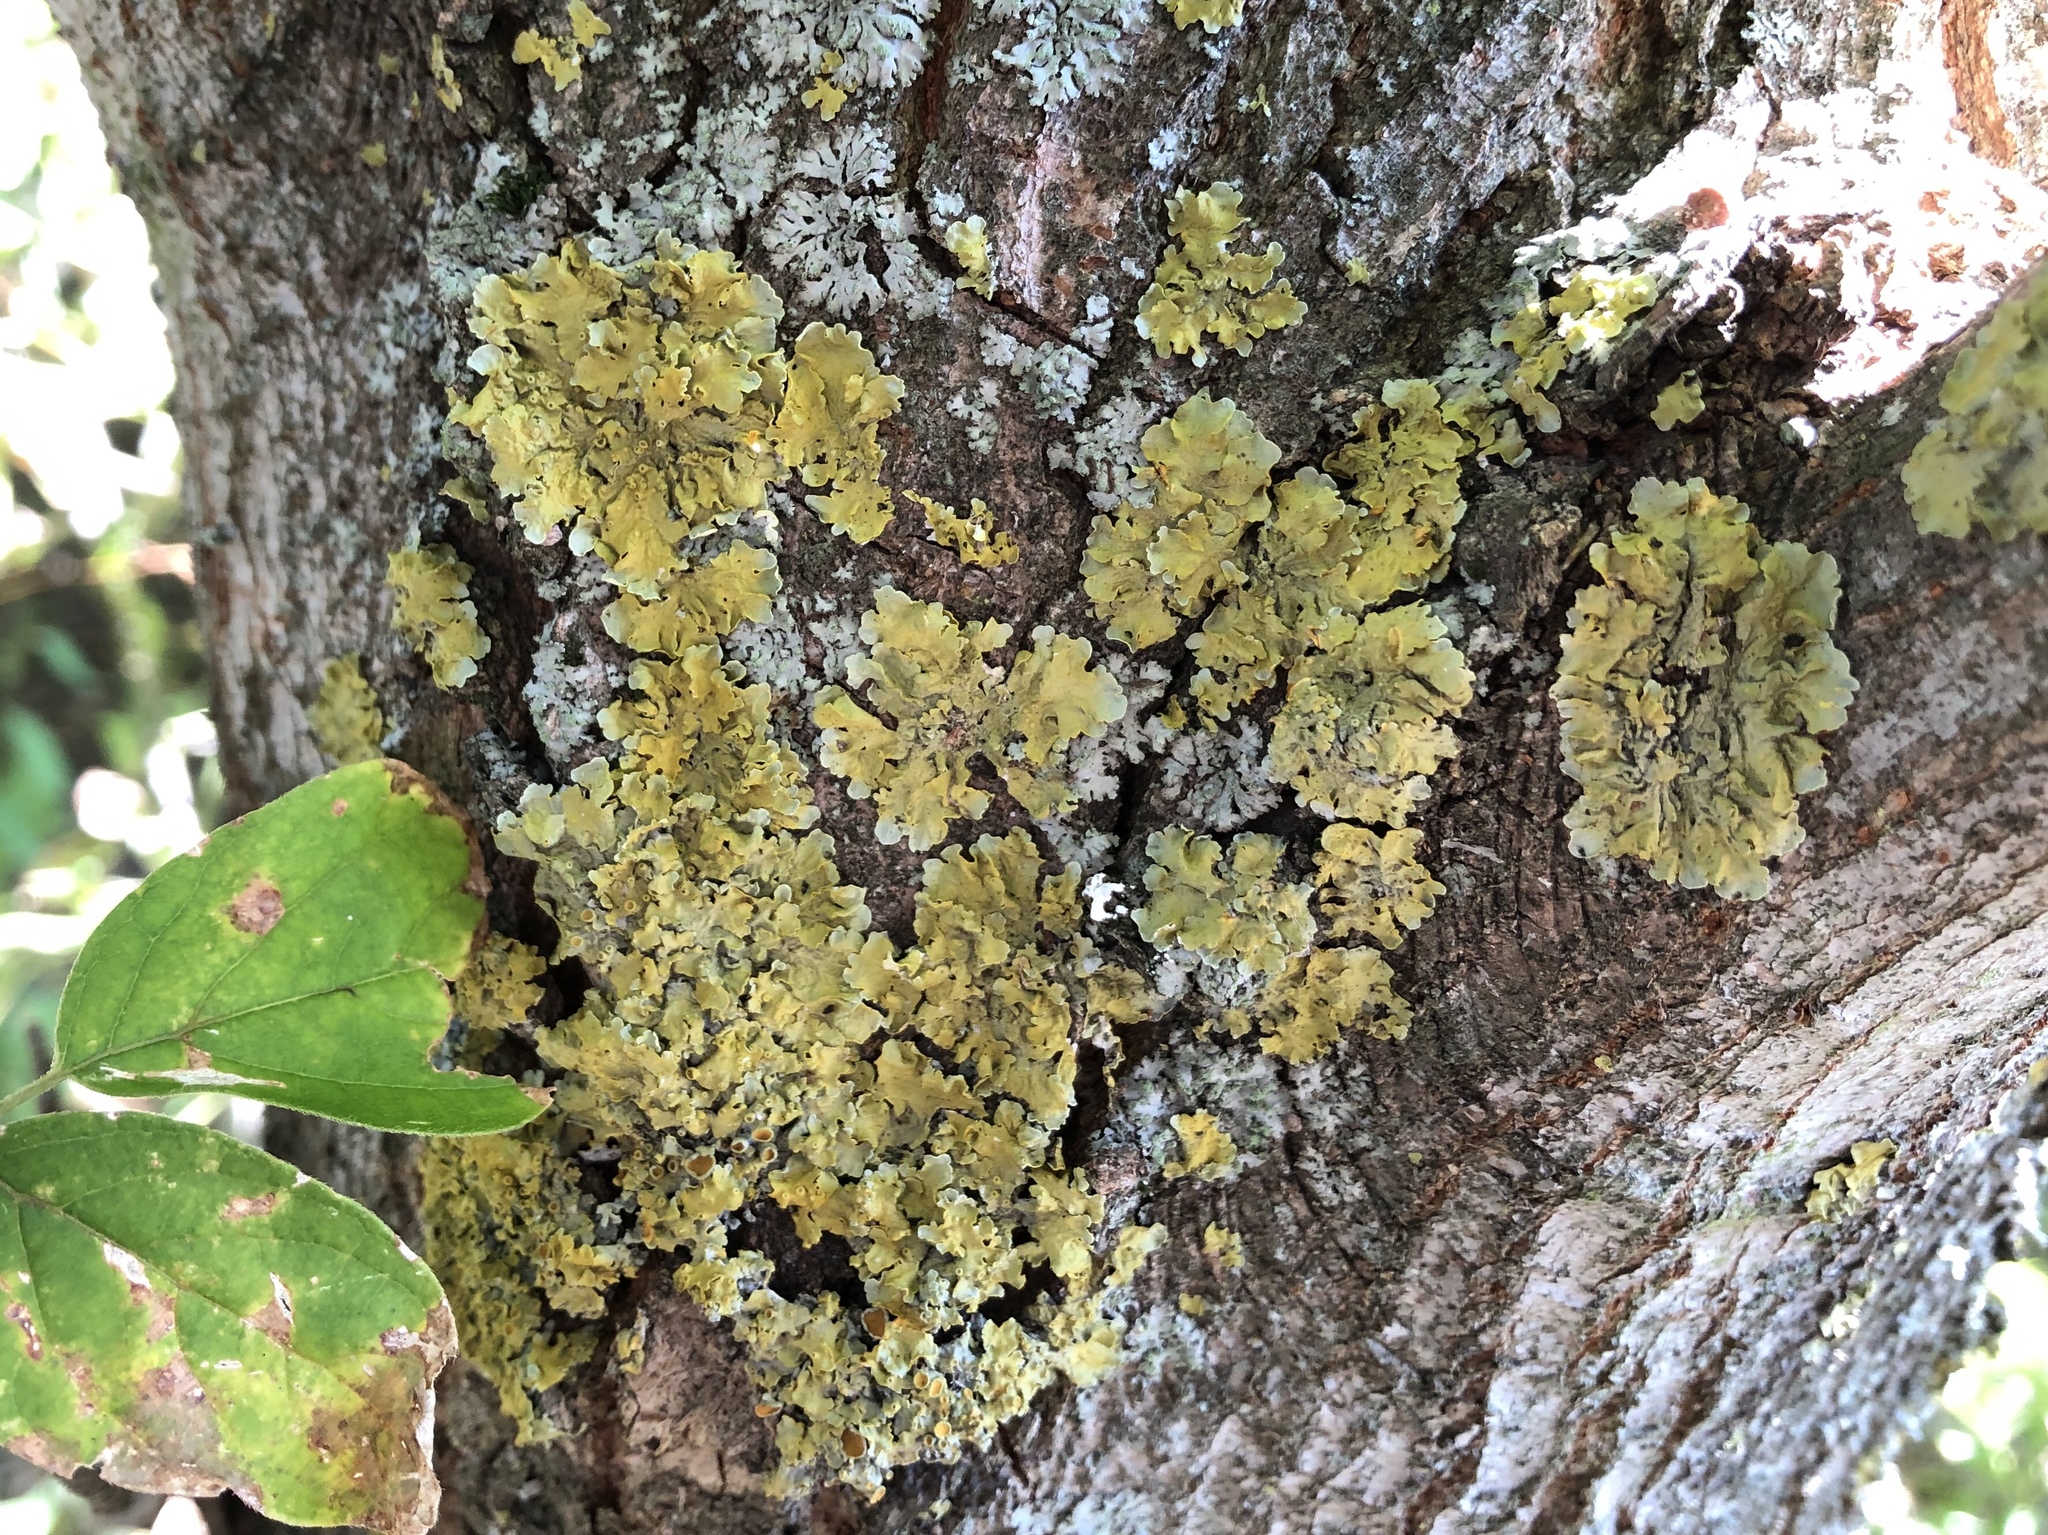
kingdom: Fungi
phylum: Ascomycota
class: Lecanoromycetes
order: Teloschistales
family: Teloschistaceae
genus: Xanthoria
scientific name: Xanthoria parietina
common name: Common orange lichen
